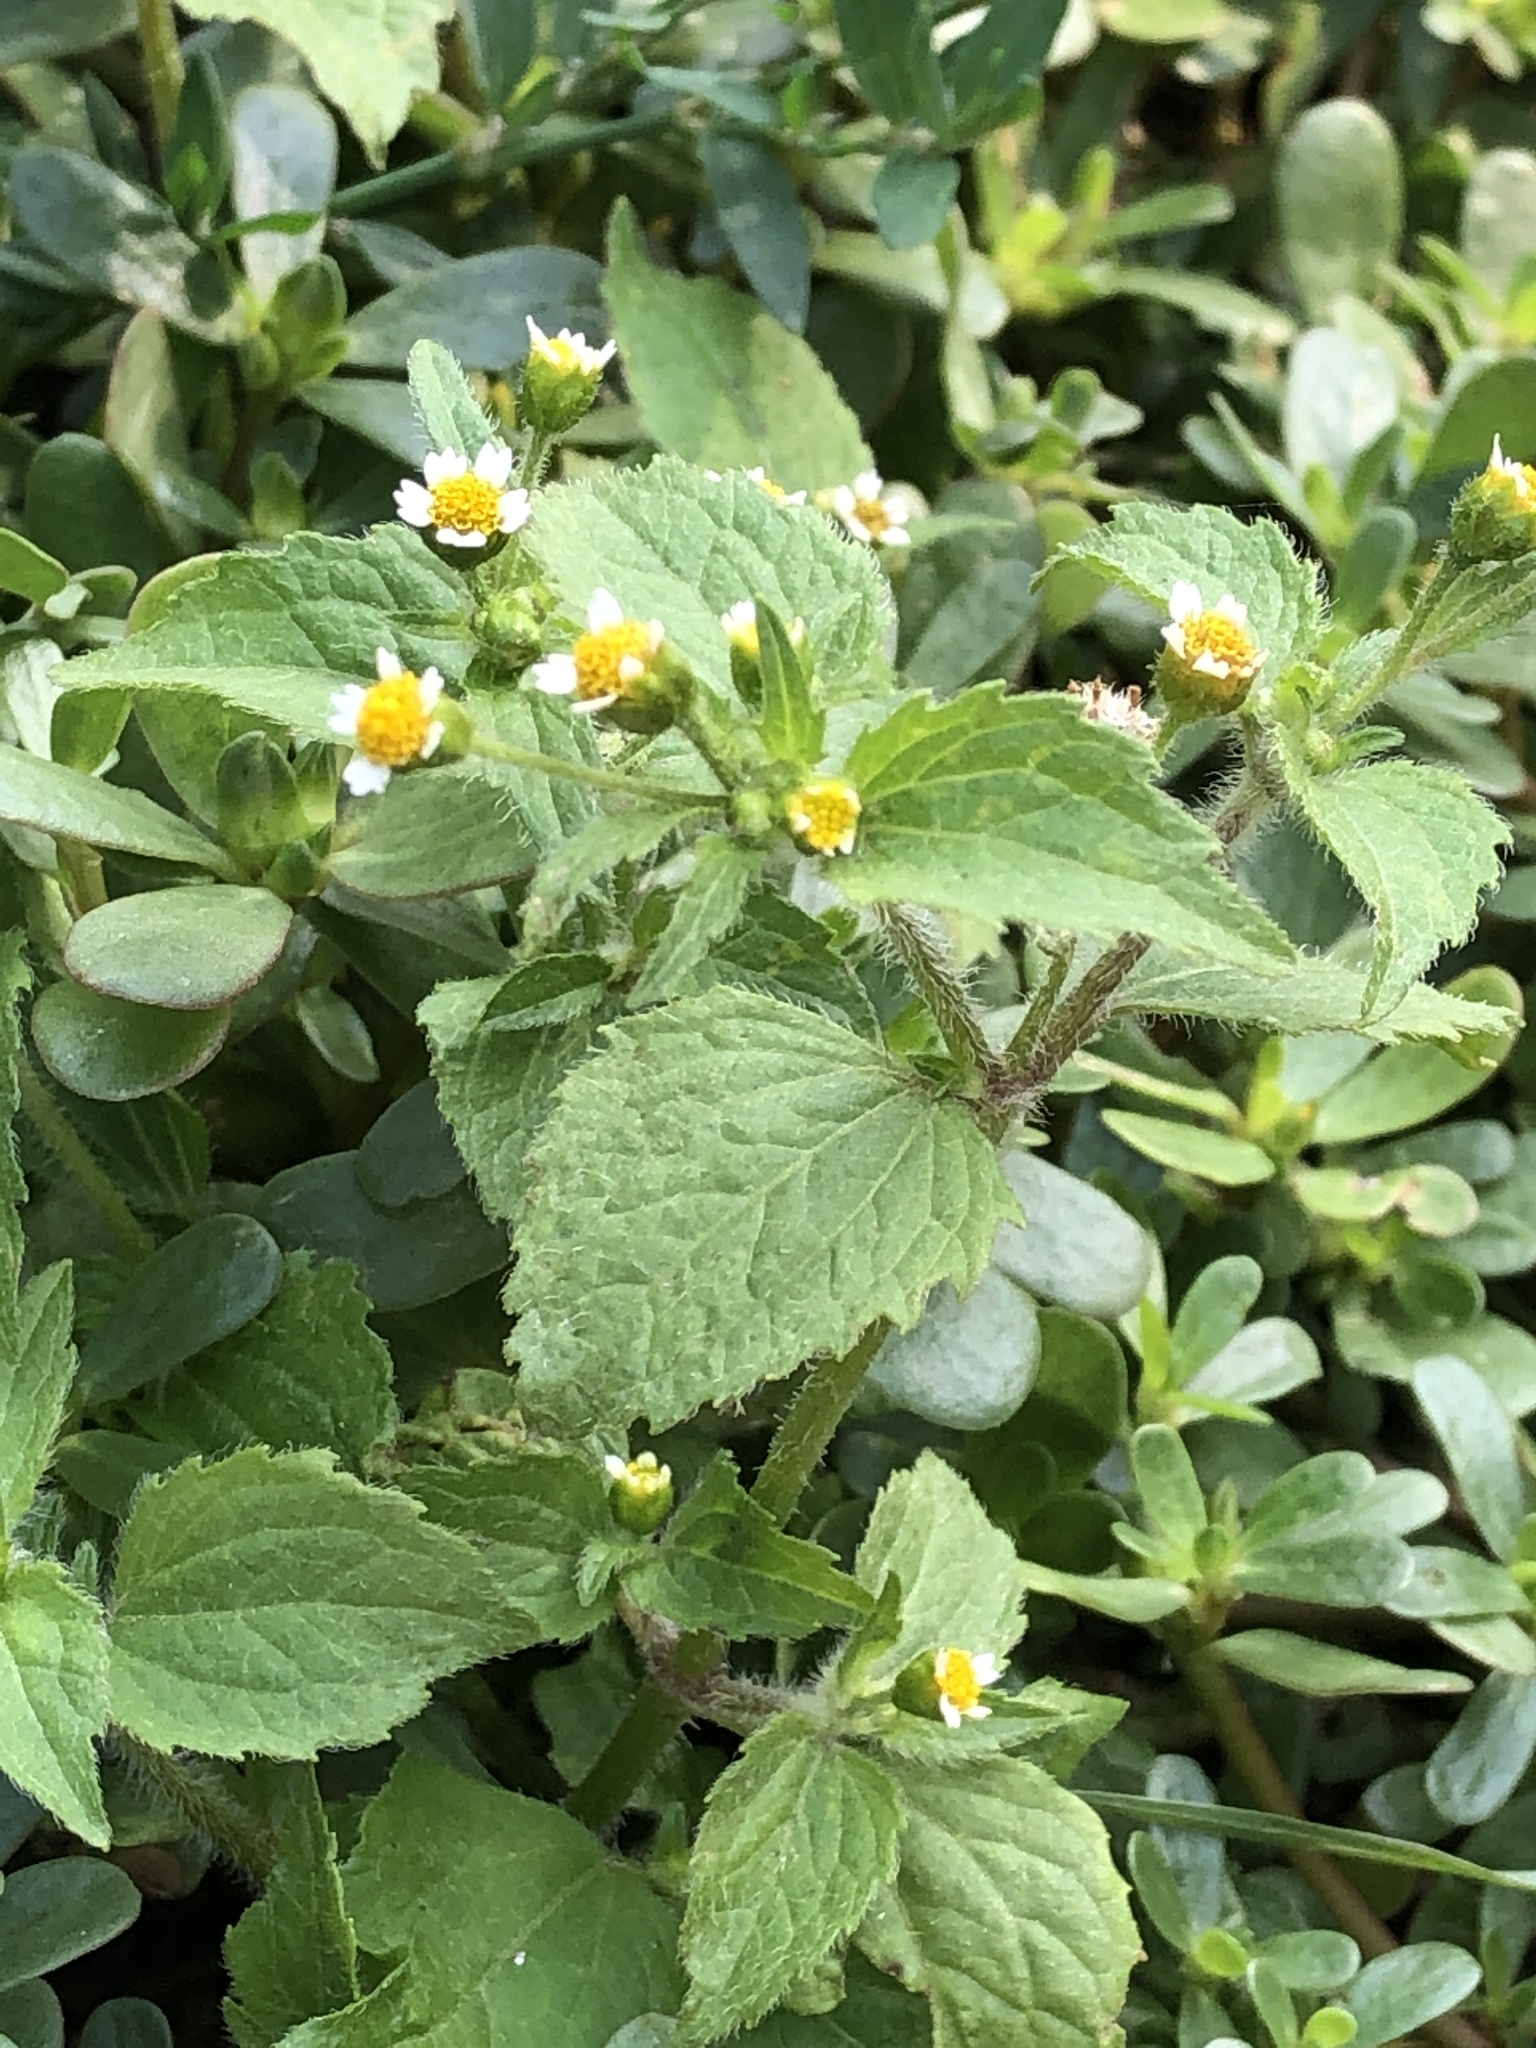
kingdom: Plantae
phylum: Tracheophyta
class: Magnoliopsida
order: Asterales
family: Asteraceae
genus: Galinsoga
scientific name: Galinsoga quadriradiata
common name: Shaggy soldier
